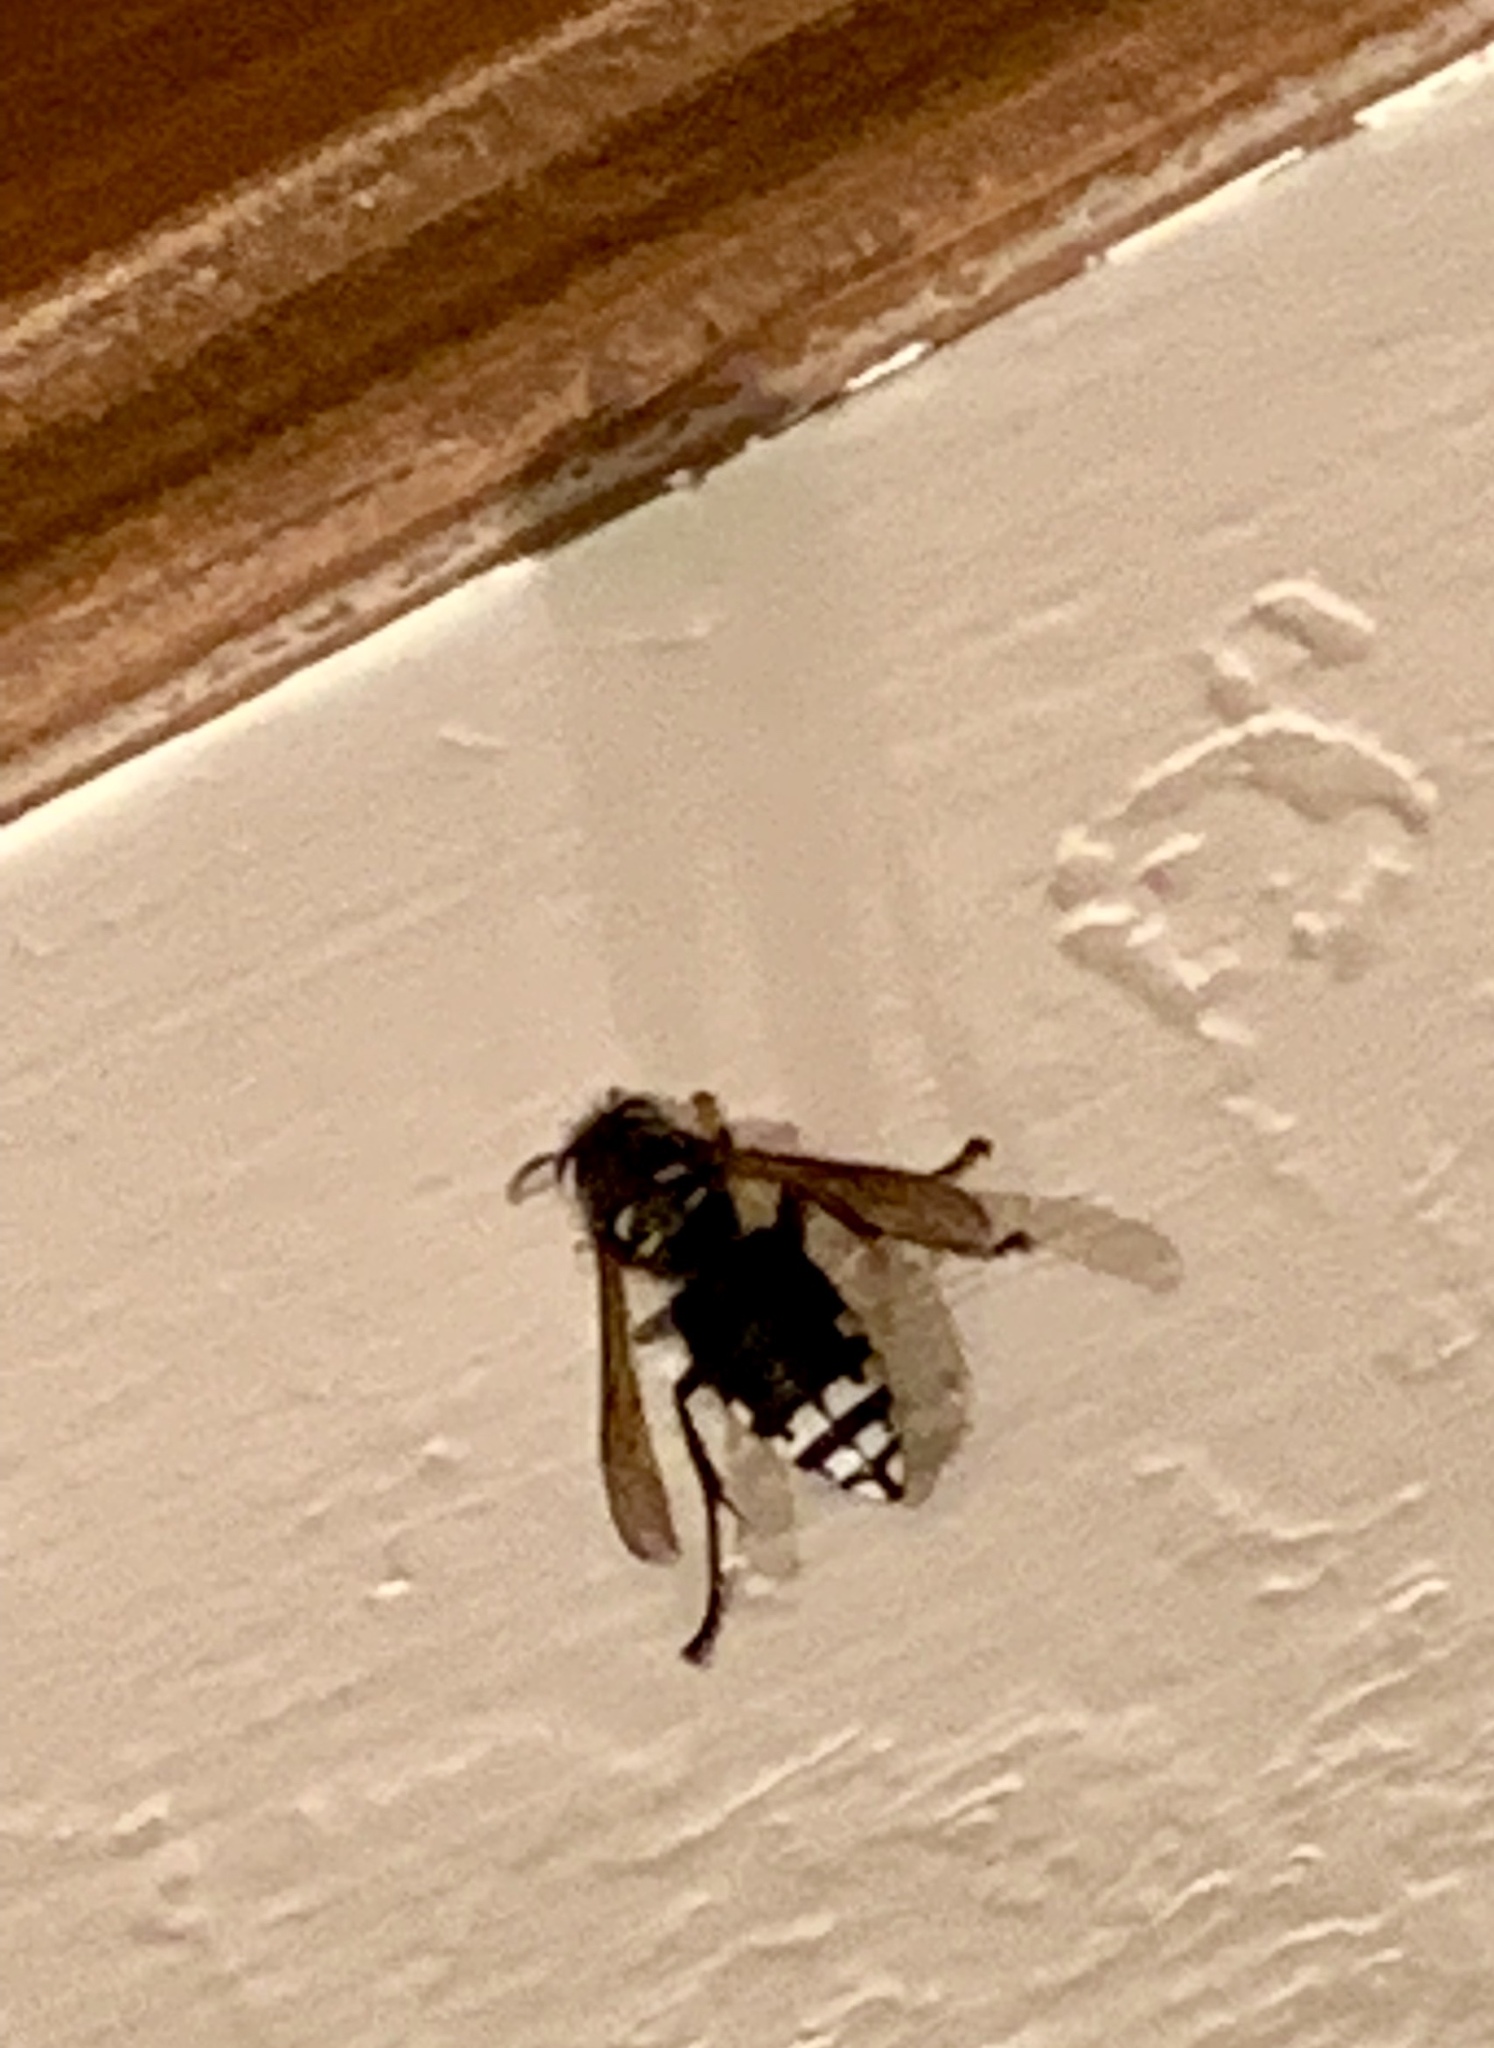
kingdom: Animalia
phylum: Arthropoda
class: Insecta
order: Hymenoptera
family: Vespidae
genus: Dolichovespula
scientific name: Dolichovespula maculata
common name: Bald-faced hornet
